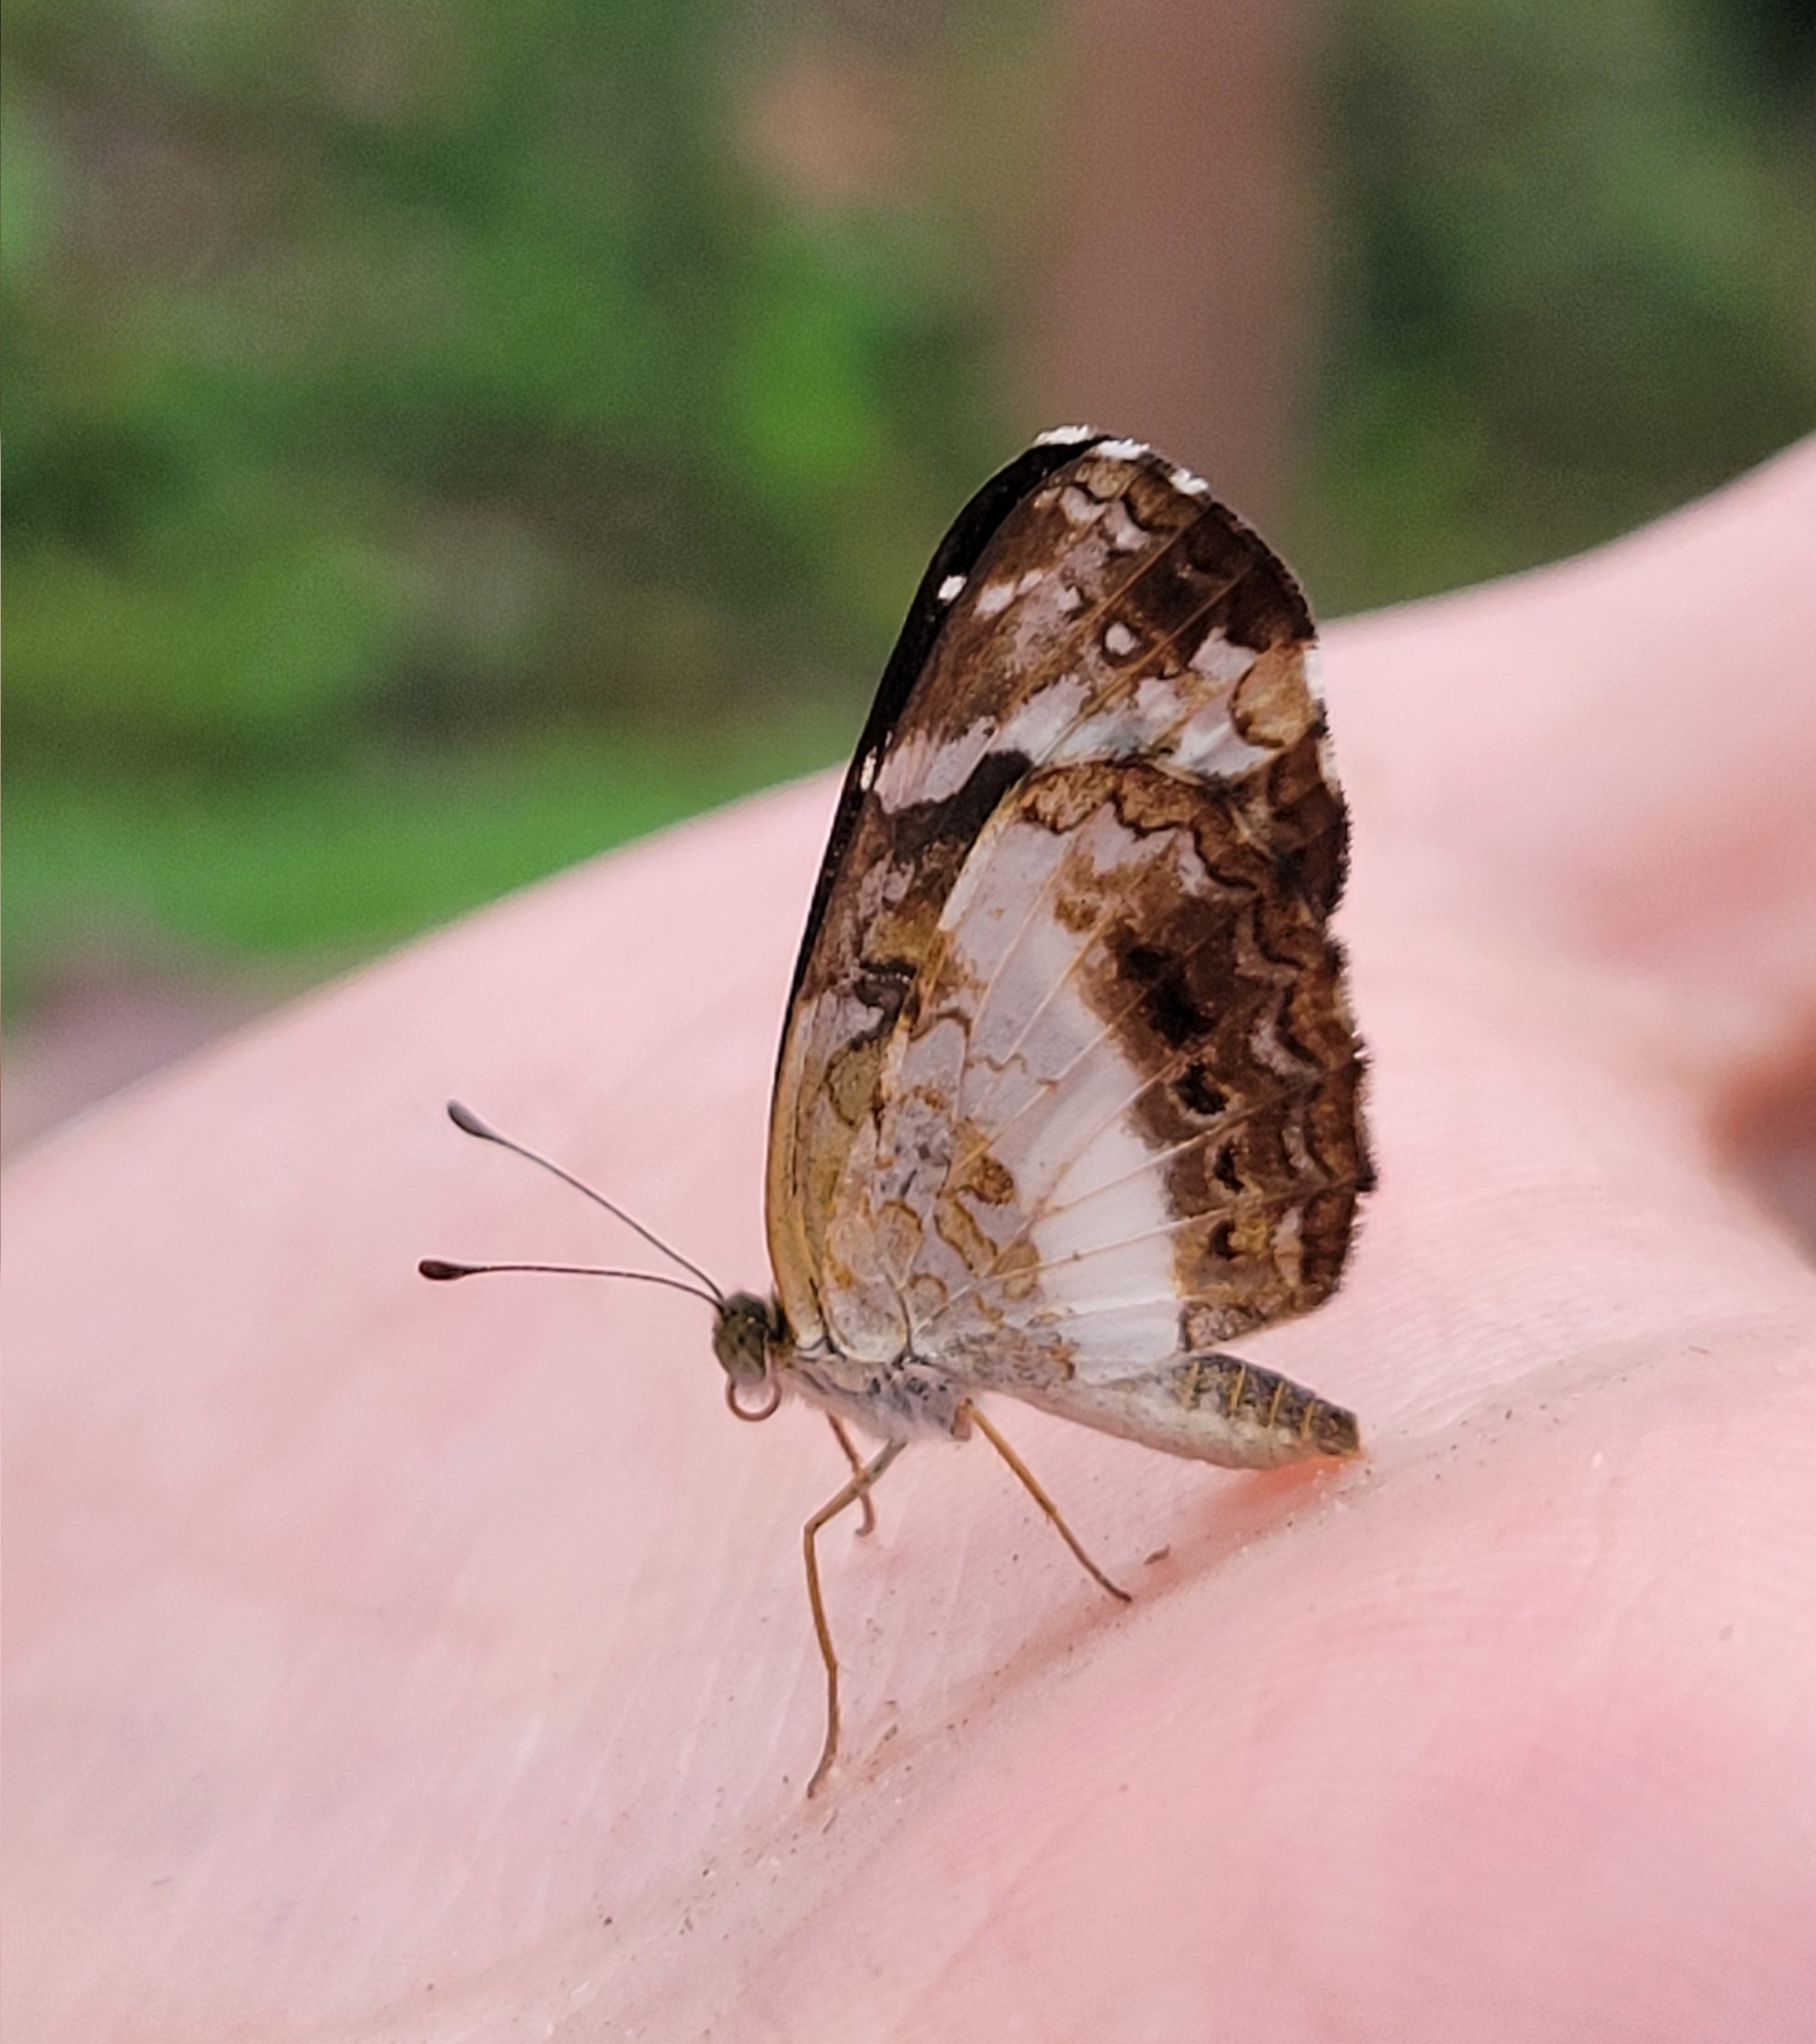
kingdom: Animalia
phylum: Arthropoda
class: Insecta
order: Lepidoptera
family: Nymphalidae
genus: Castilia
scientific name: Castilia ofella
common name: White-dotted crescent
